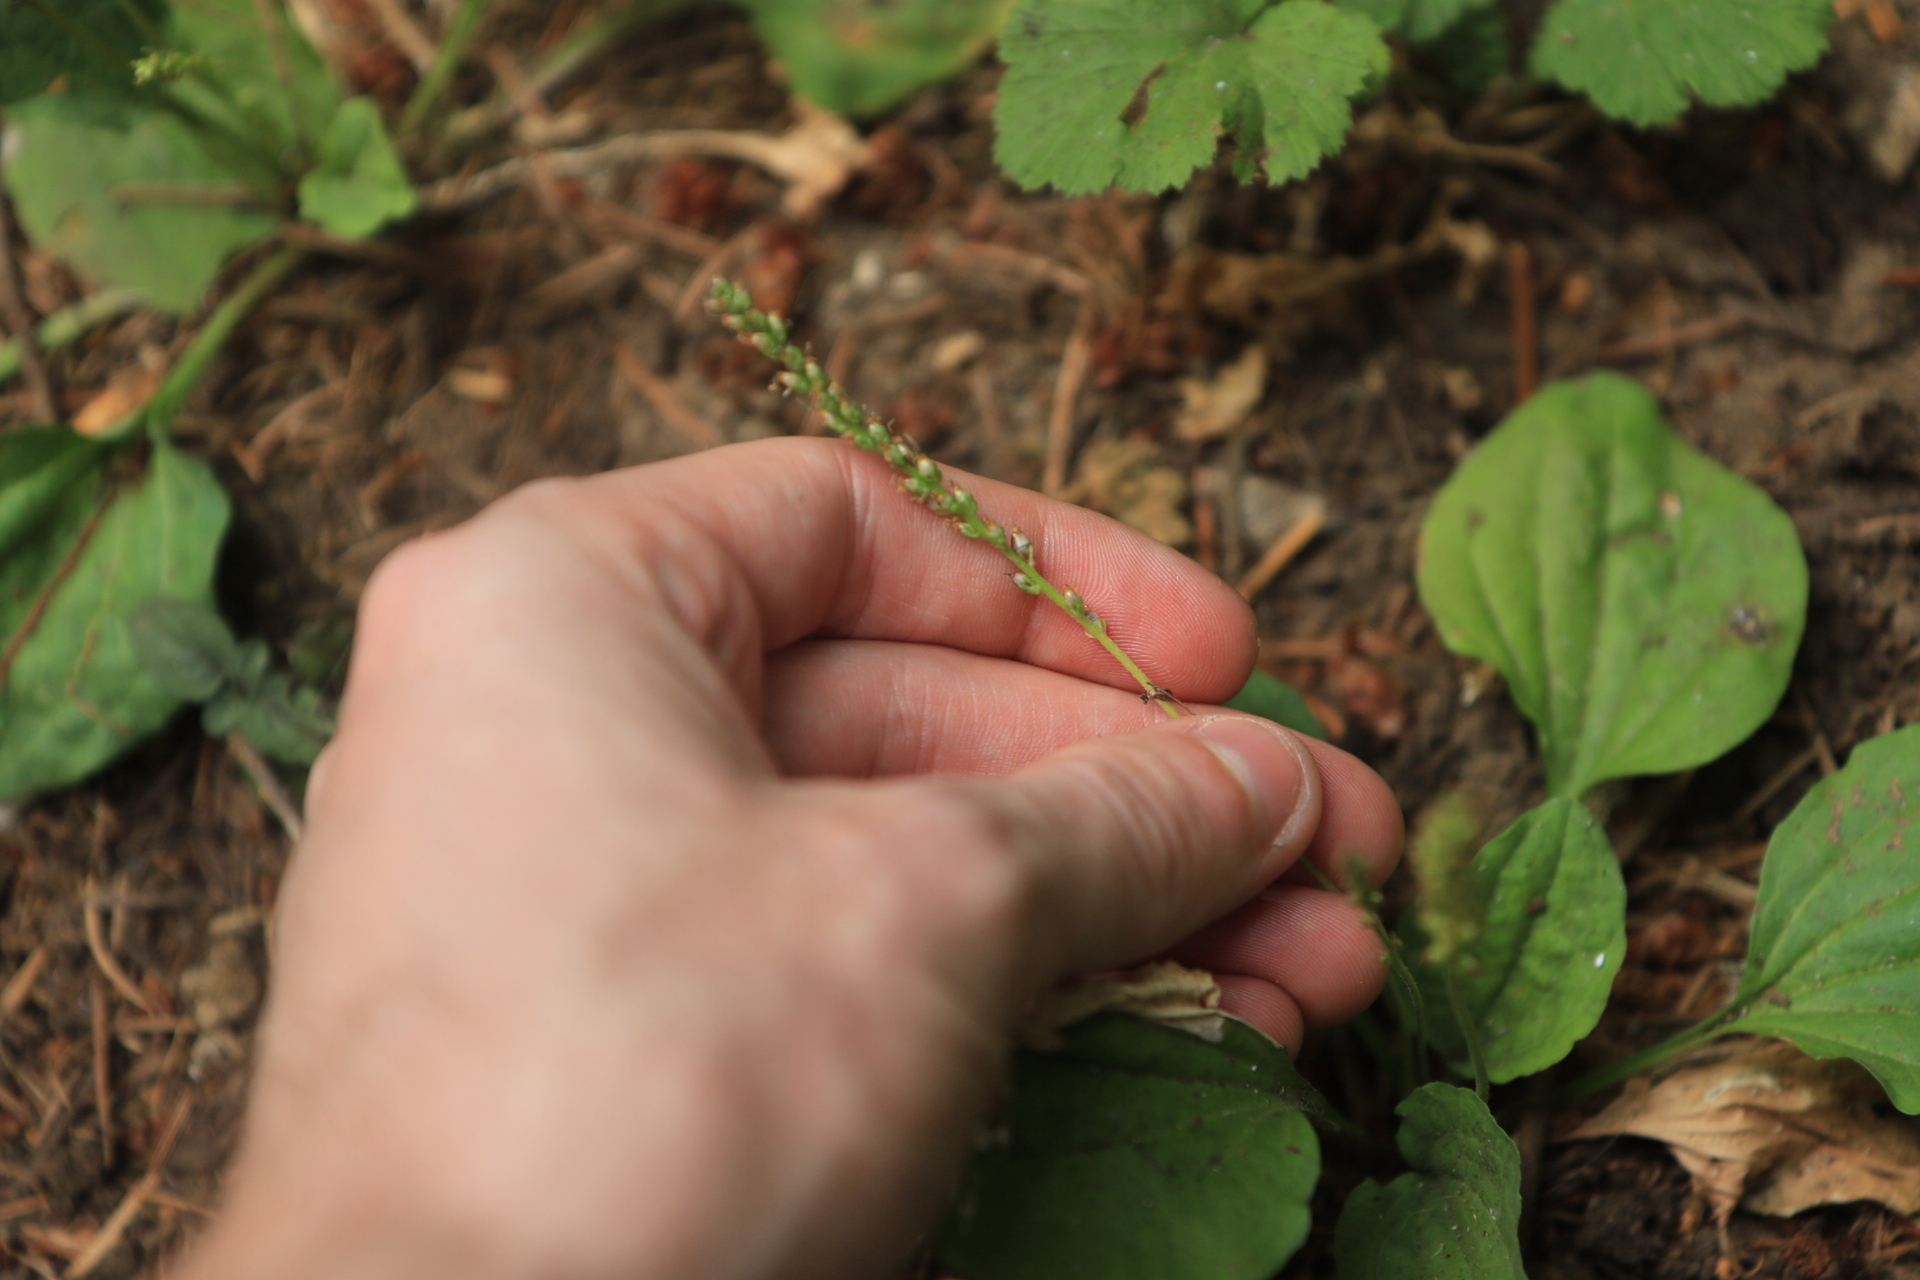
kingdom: Plantae
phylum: Tracheophyta
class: Magnoliopsida
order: Lamiales
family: Plantaginaceae
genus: Plantago
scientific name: Plantago major
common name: Common plantain
